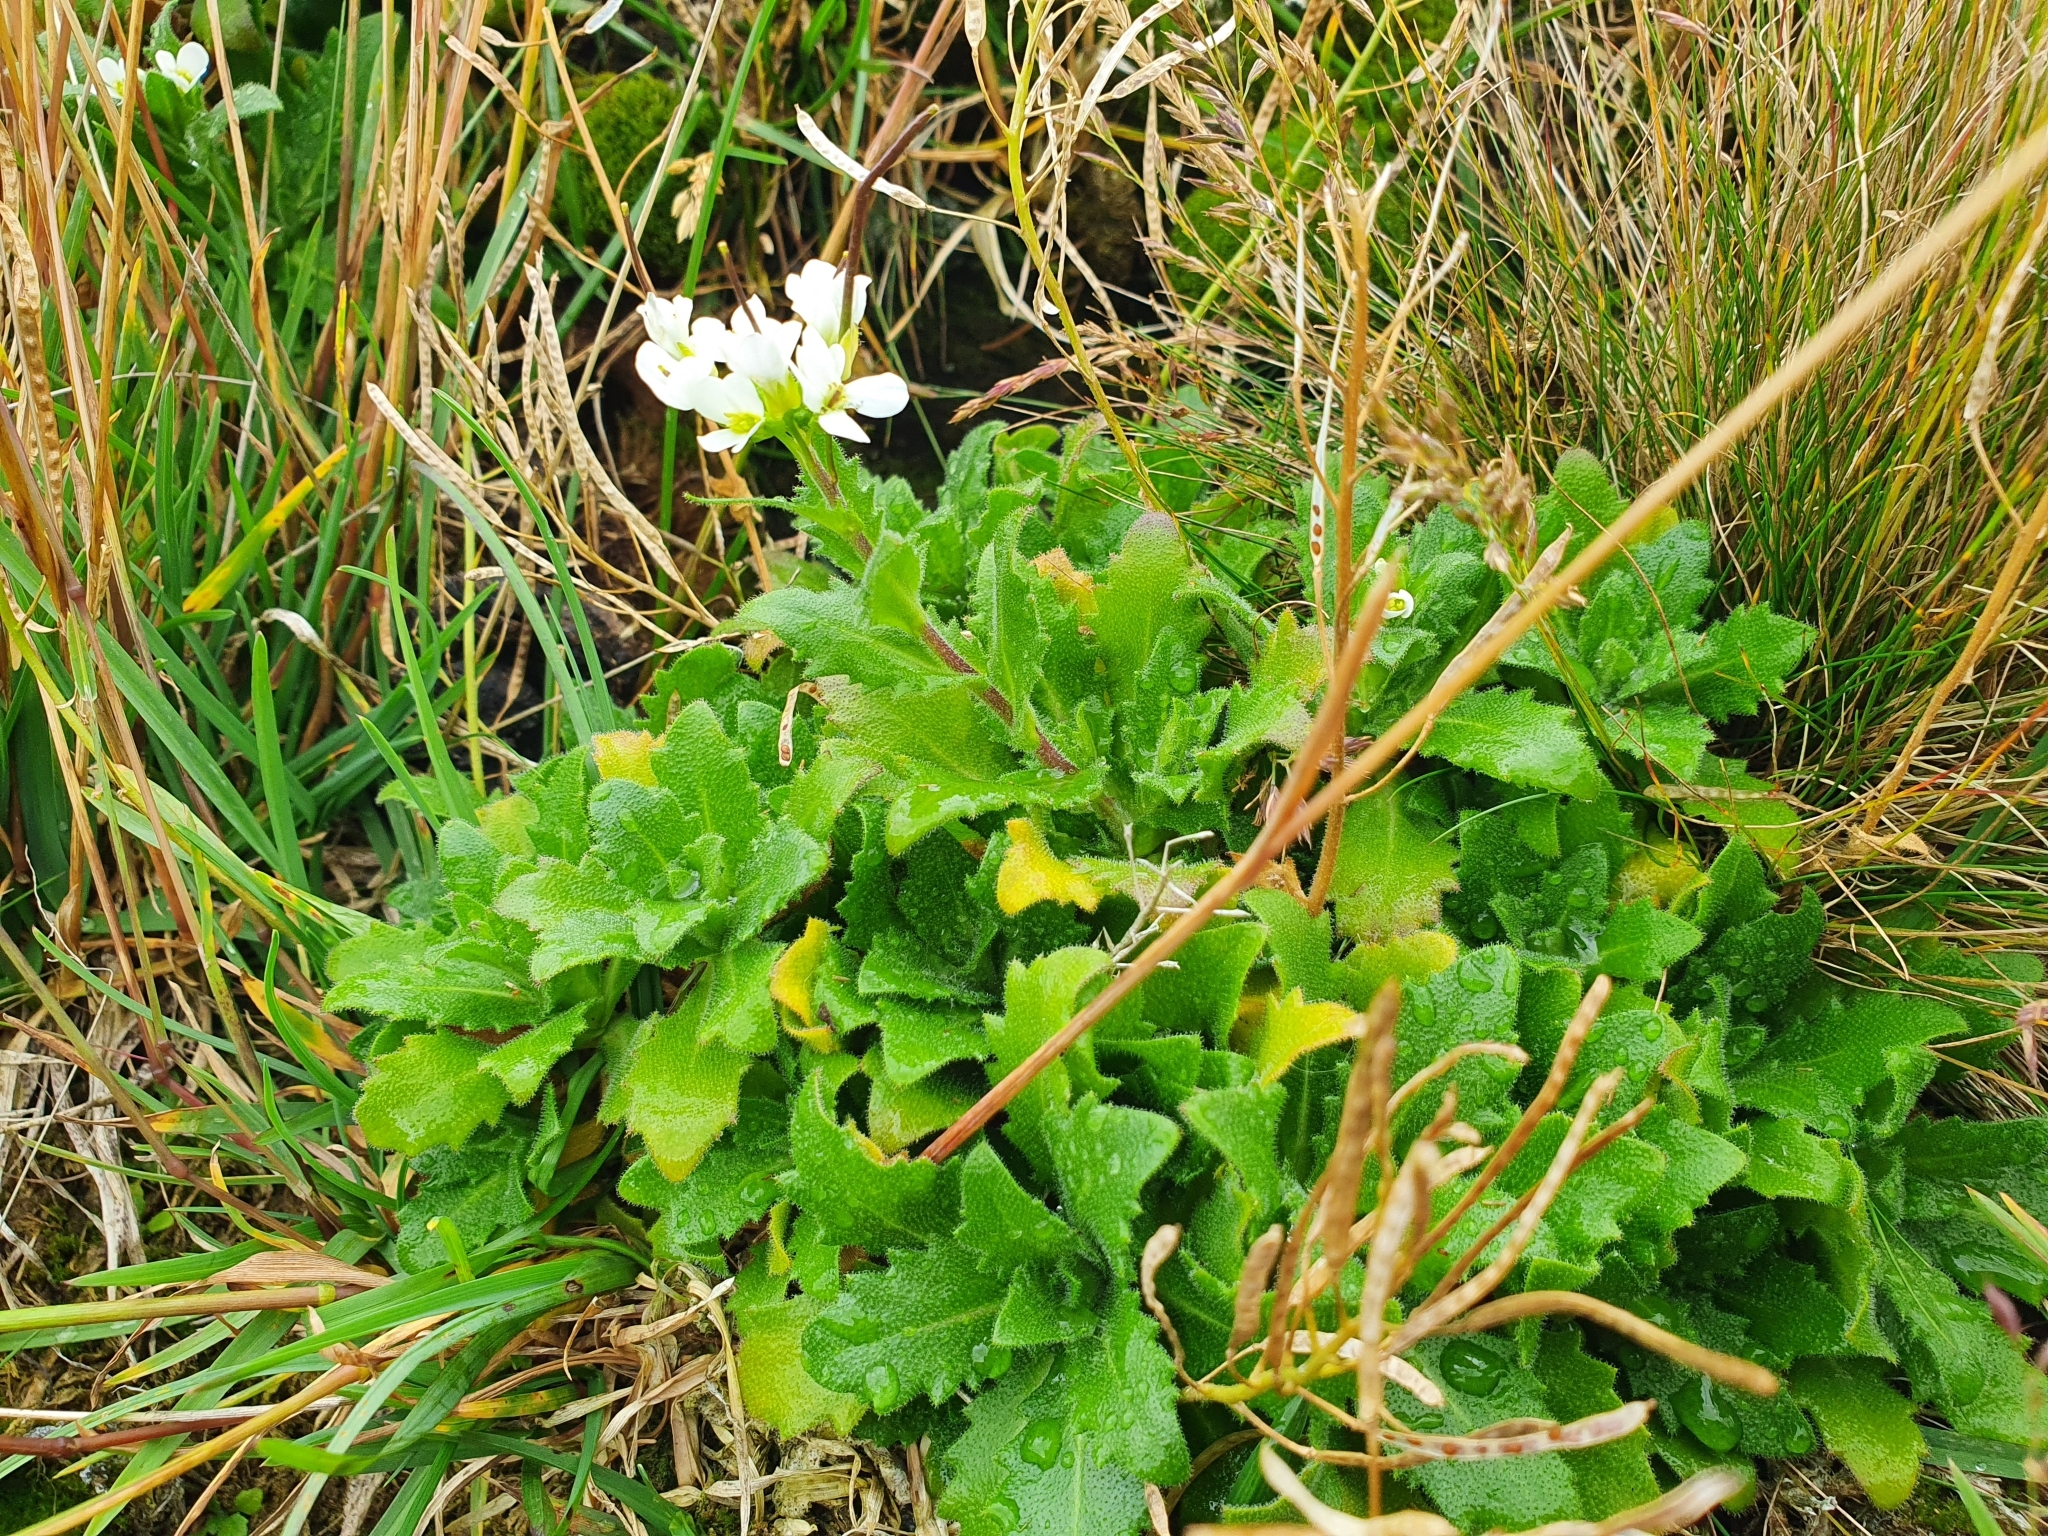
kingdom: Plantae
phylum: Tracheophyta
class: Magnoliopsida
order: Brassicales
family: Brassicaceae
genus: Arabis
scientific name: Arabis alpina
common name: Alpine rock-cress
